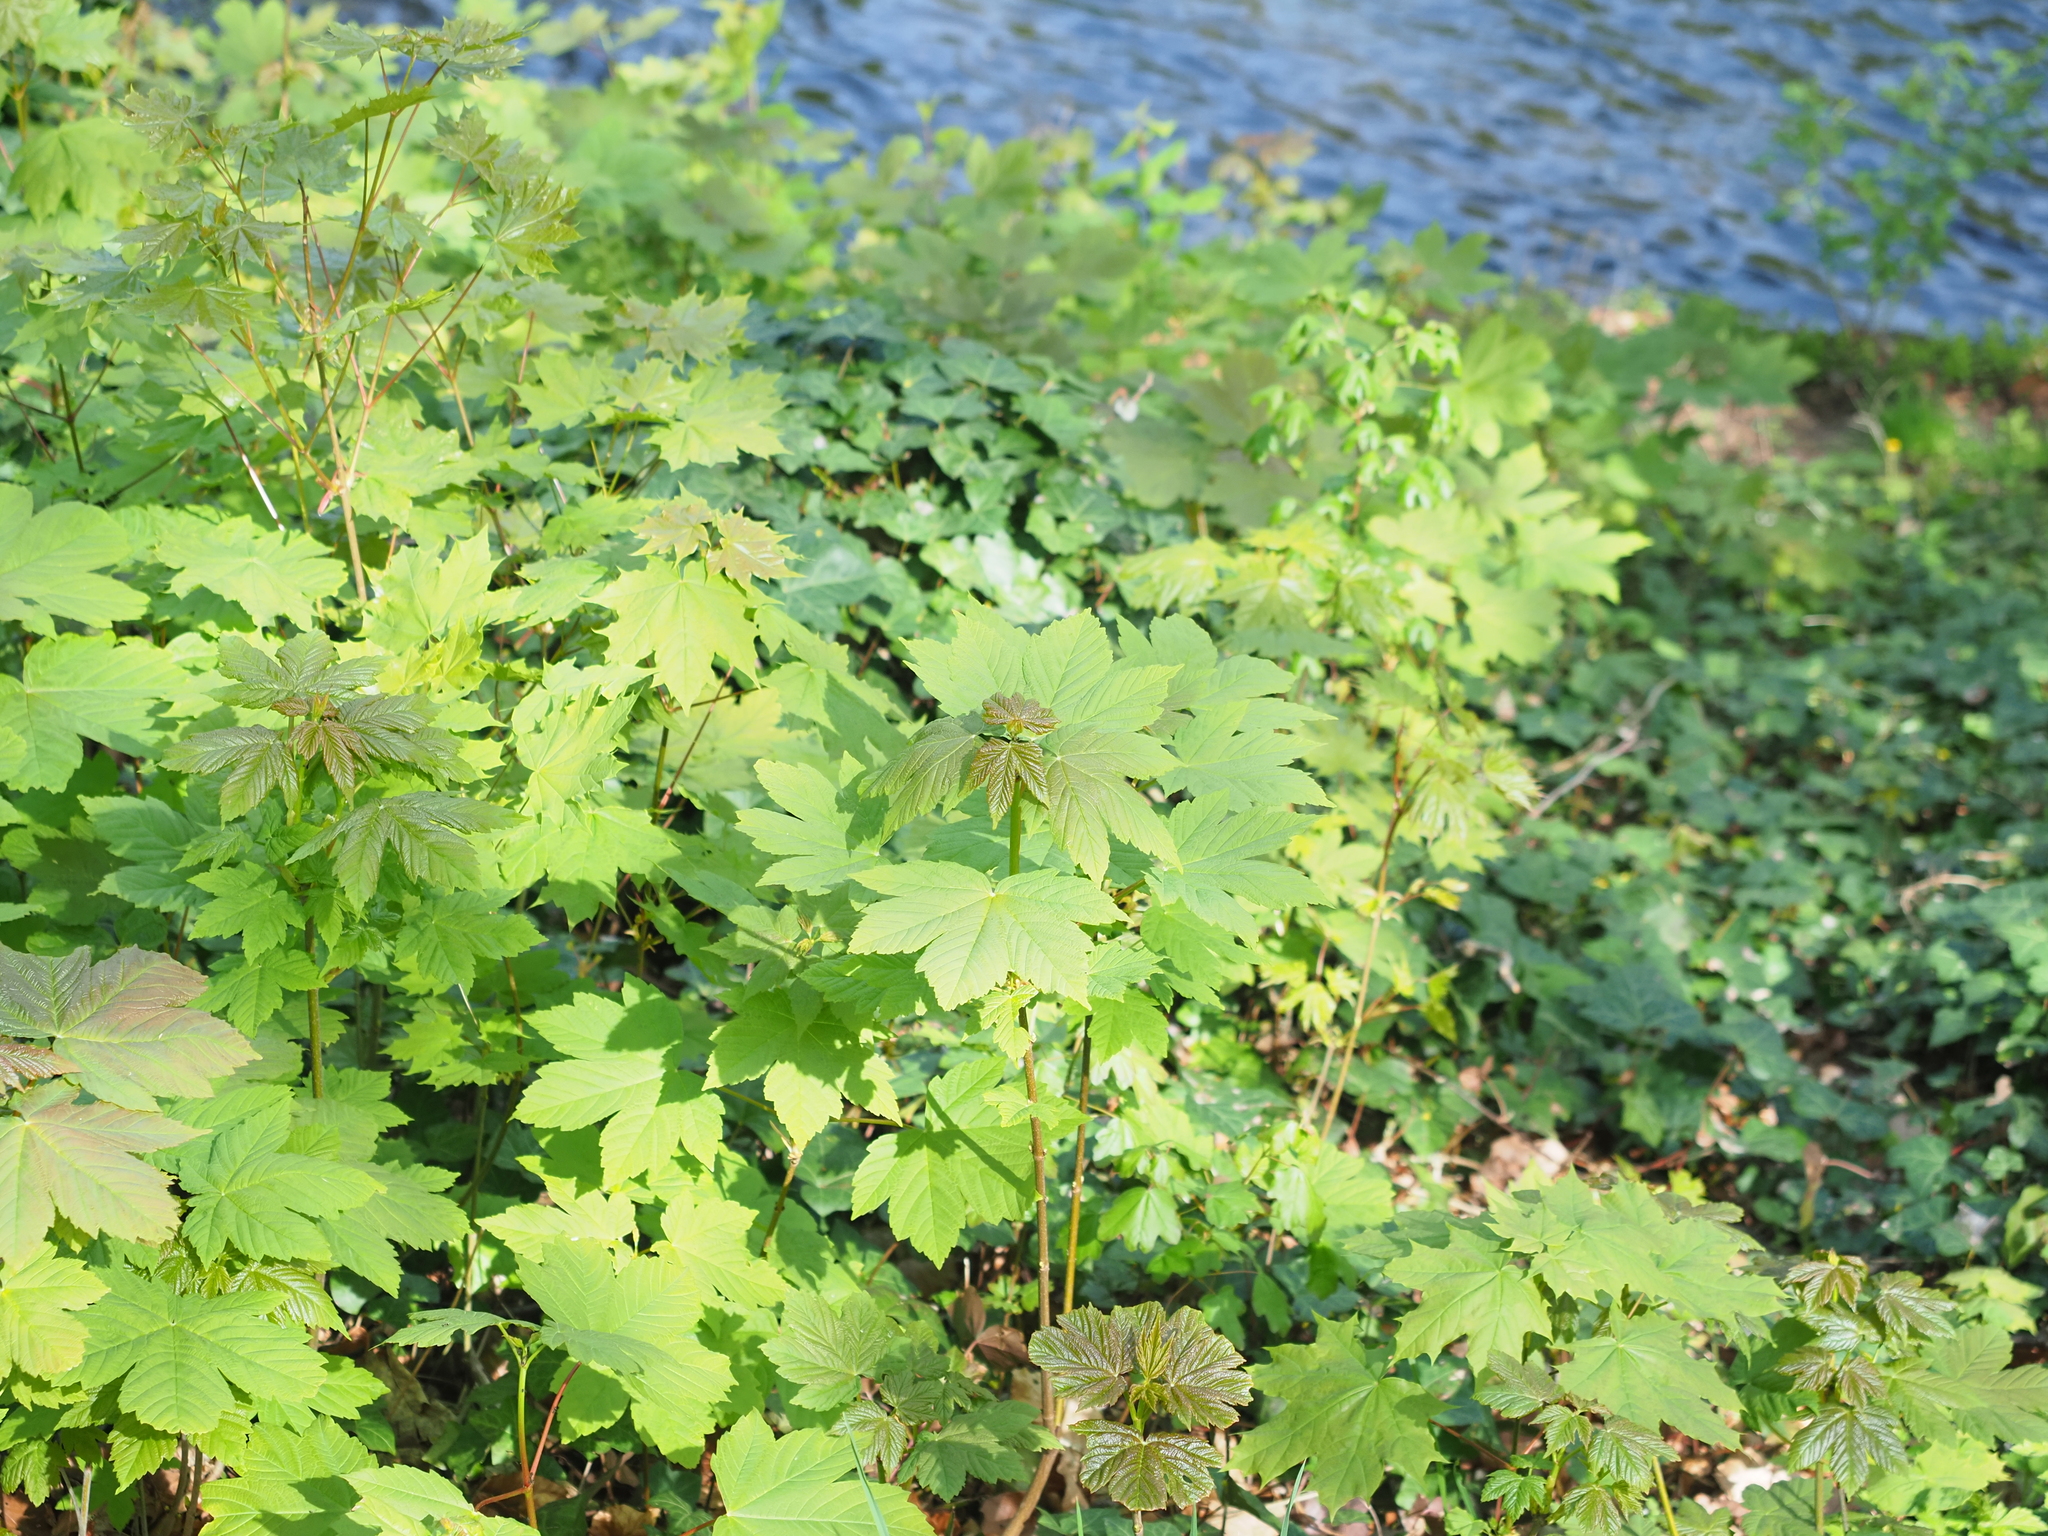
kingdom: Plantae
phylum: Tracheophyta
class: Magnoliopsida
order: Sapindales
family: Sapindaceae
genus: Acer
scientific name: Acer pseudoplatanus
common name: Sycamore
